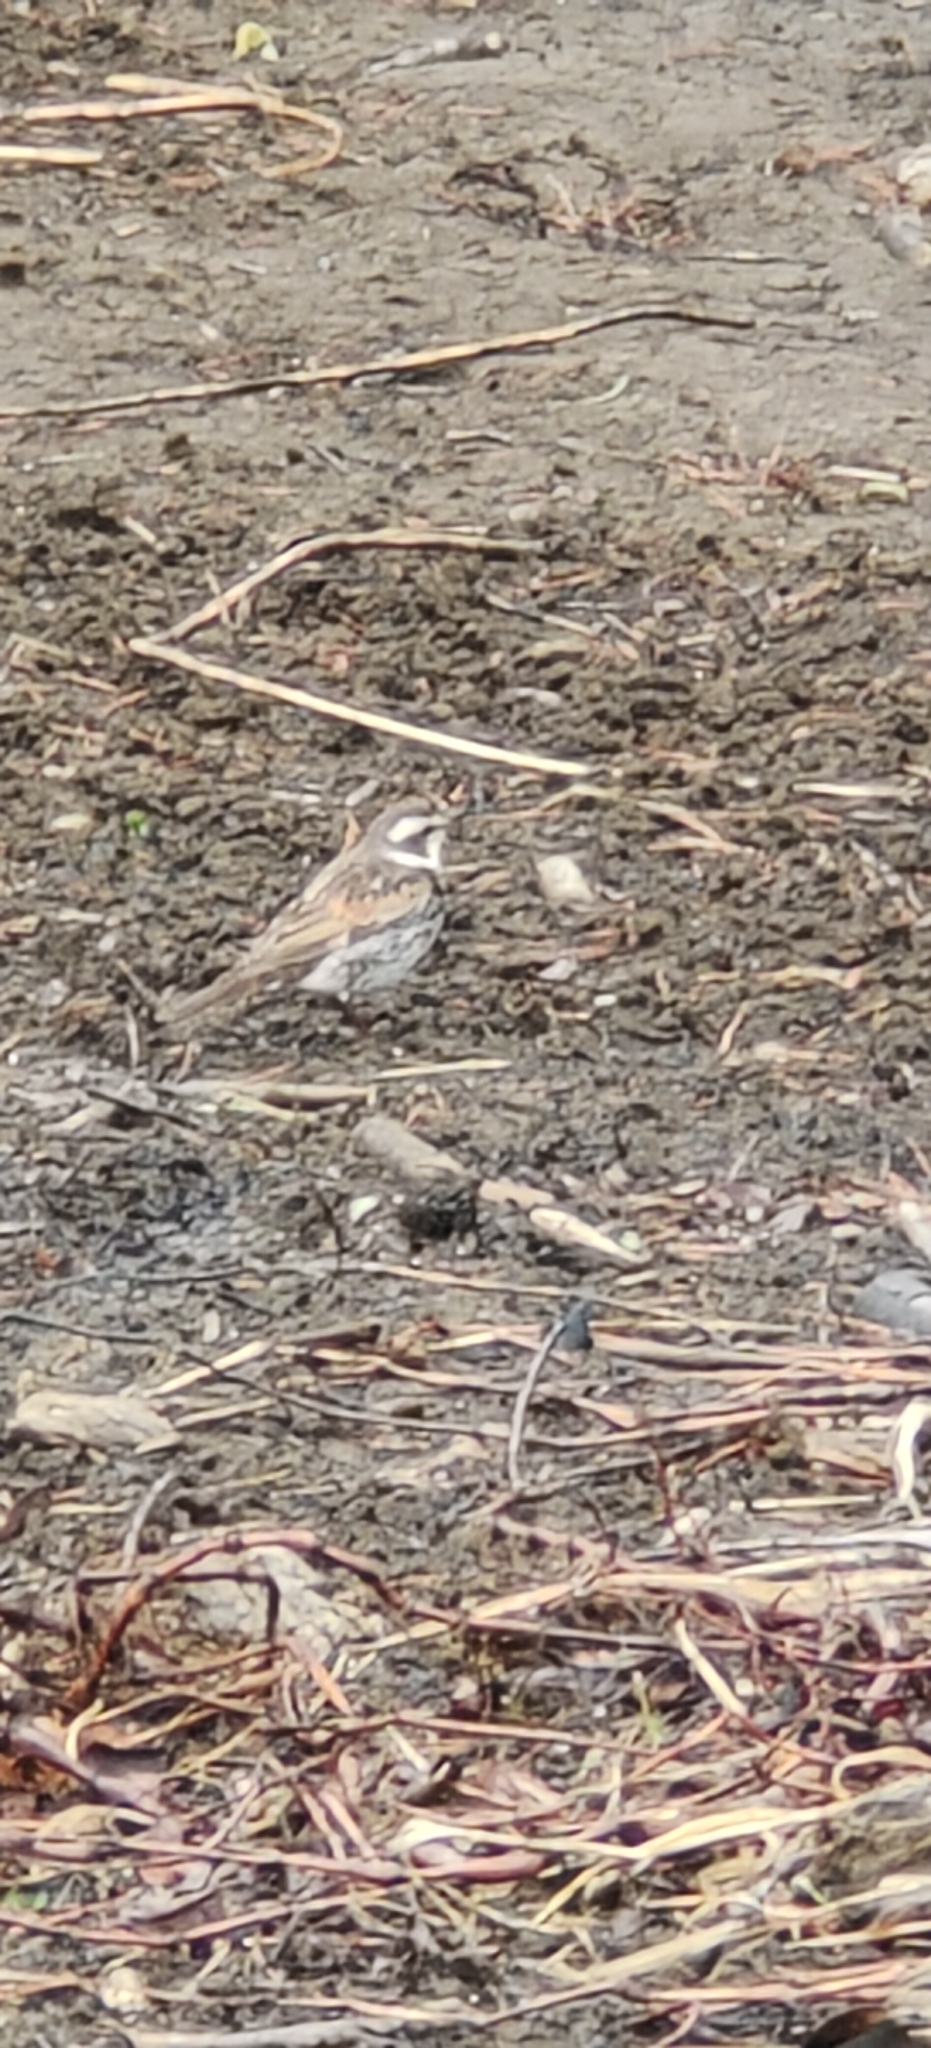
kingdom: Animalia
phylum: Chordata
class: Aves
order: Passeriformes
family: Turdidae
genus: Turdus
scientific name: Turdus eunomus
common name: Dusky thrush
